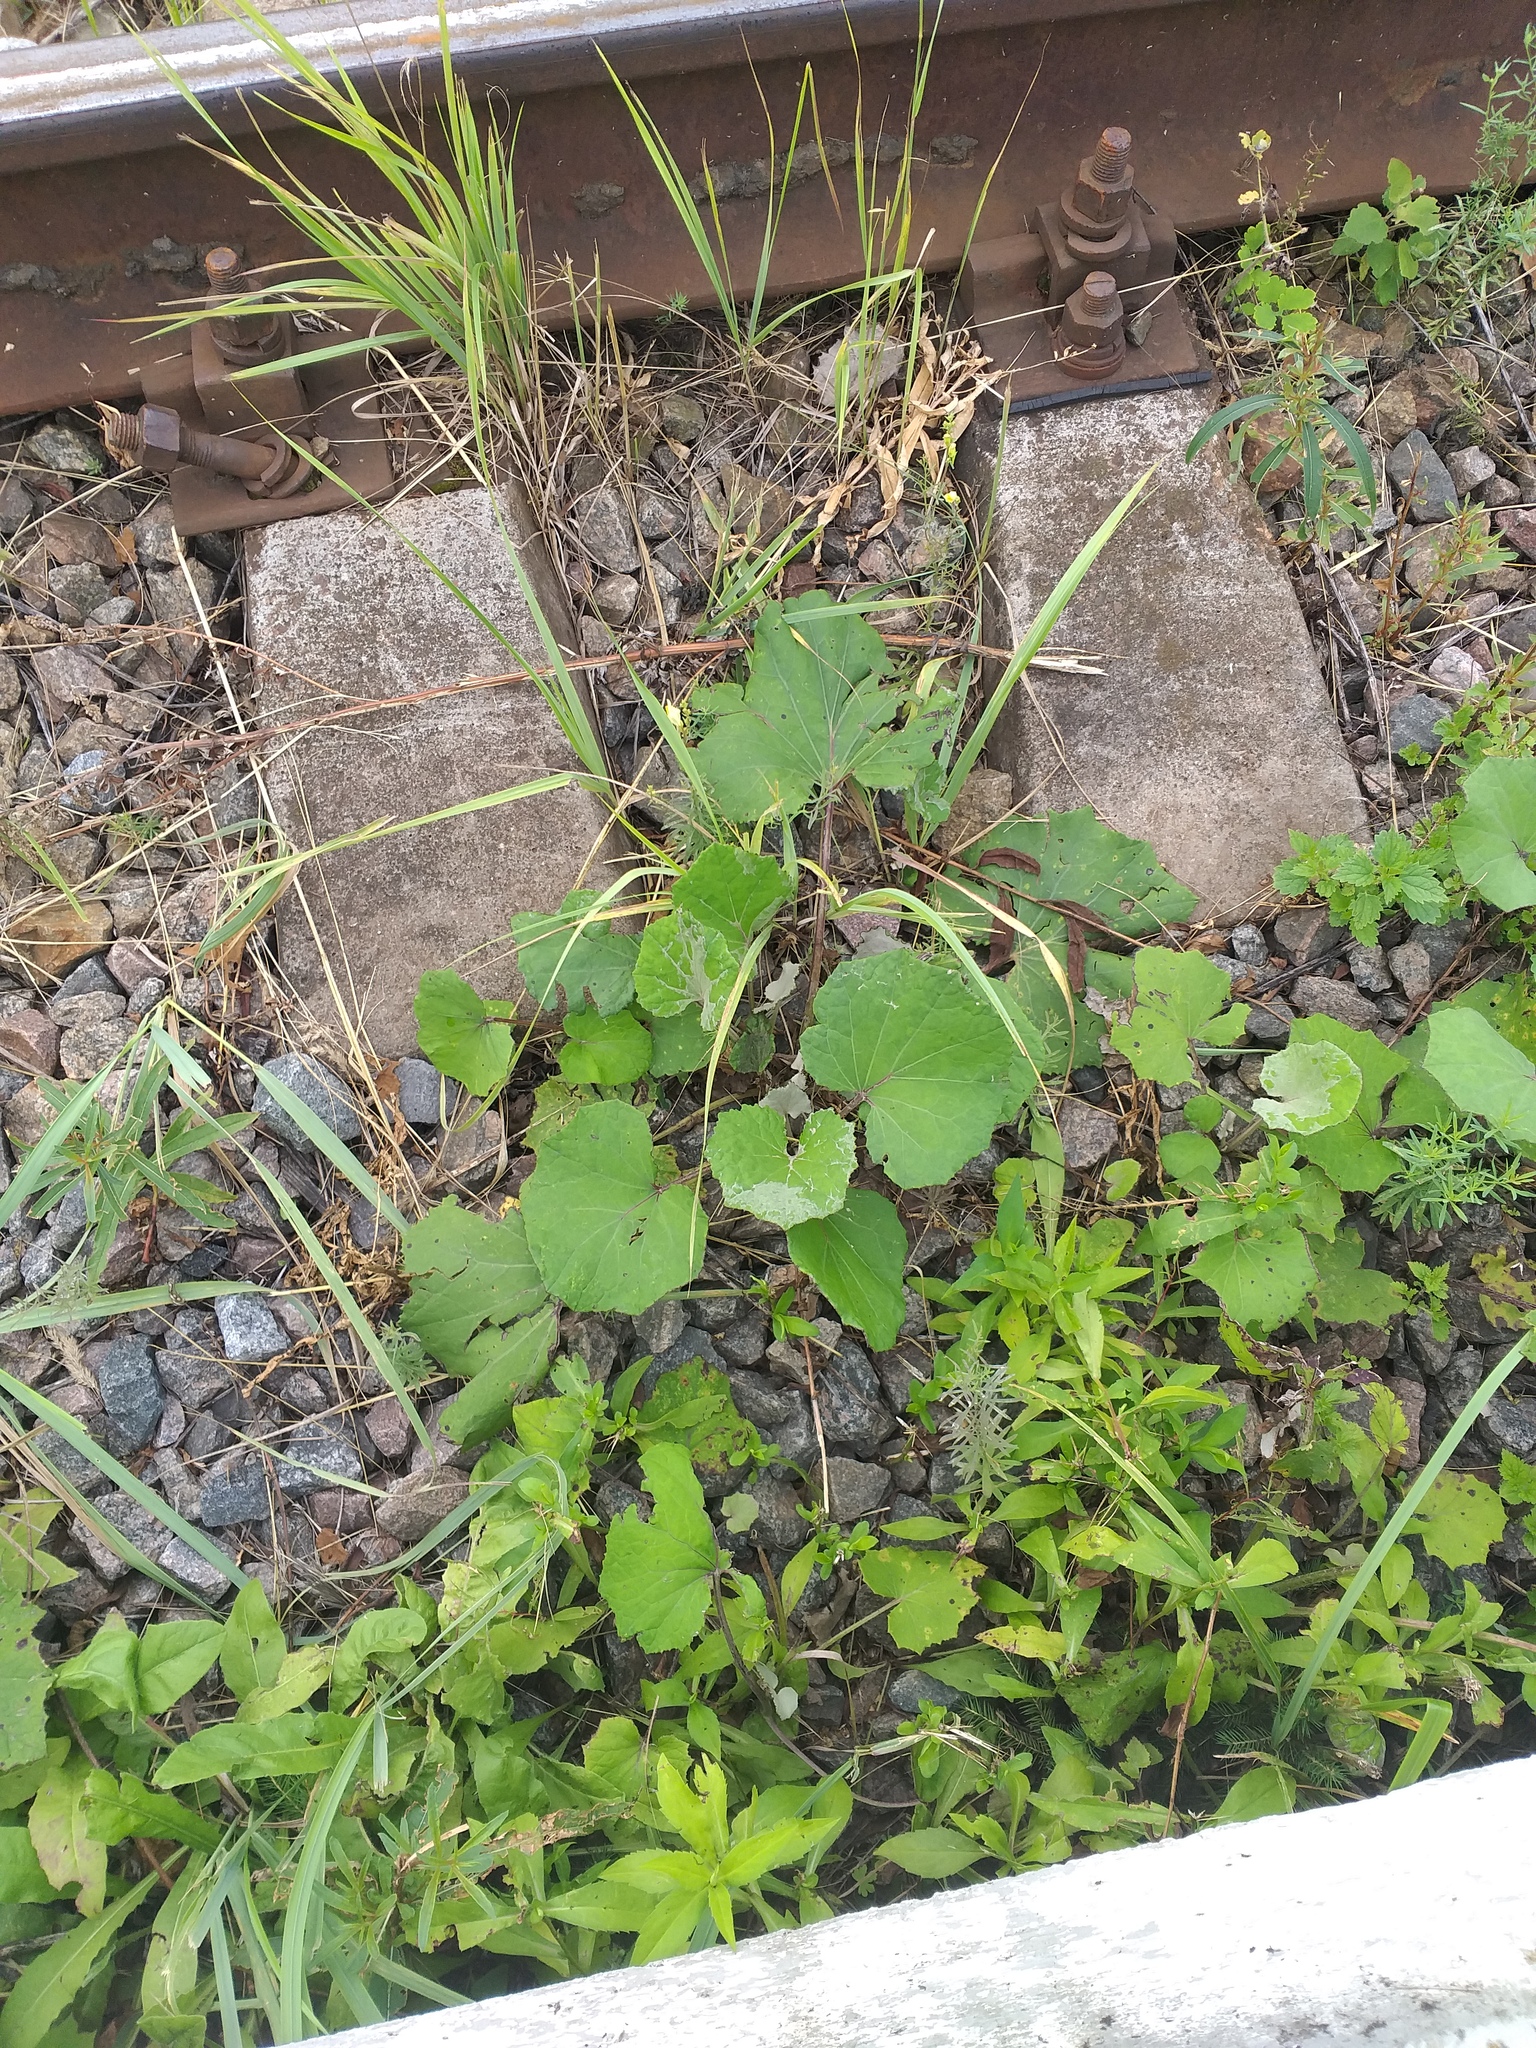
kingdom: Plantae
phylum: Tracheophyta
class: Magnoliopsida
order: Asterales
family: Asteraceae
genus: Tussilago
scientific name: Tussilago farfara
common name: Coltsfoot
